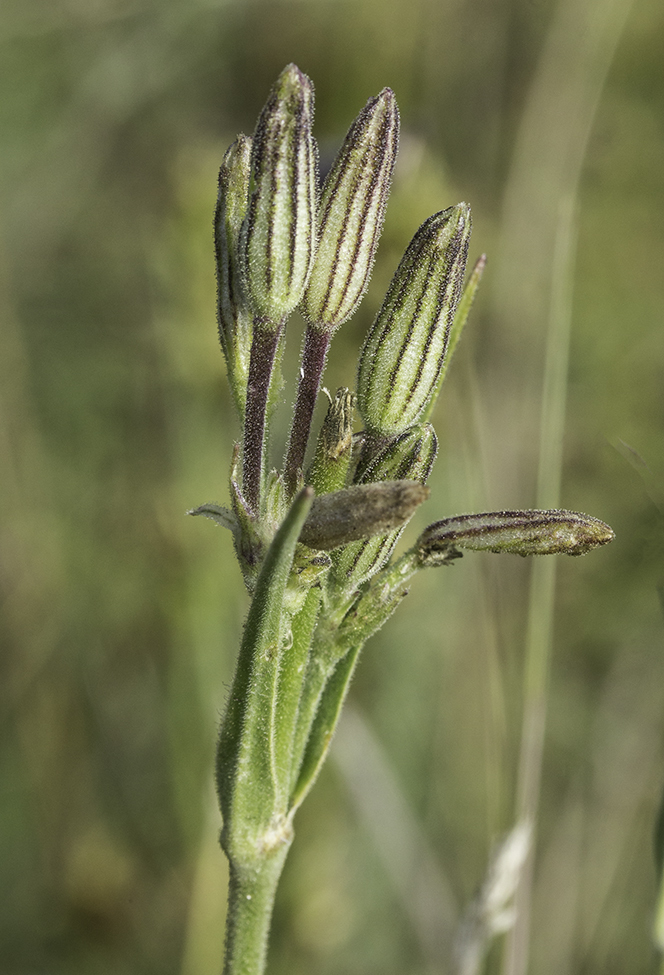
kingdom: Plantae
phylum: Tracheophyta
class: Magnoliopsida
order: Caryophyllales
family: Caryophyllaceae
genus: Silene
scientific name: Silene drummondii
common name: Drummond's catchfly
